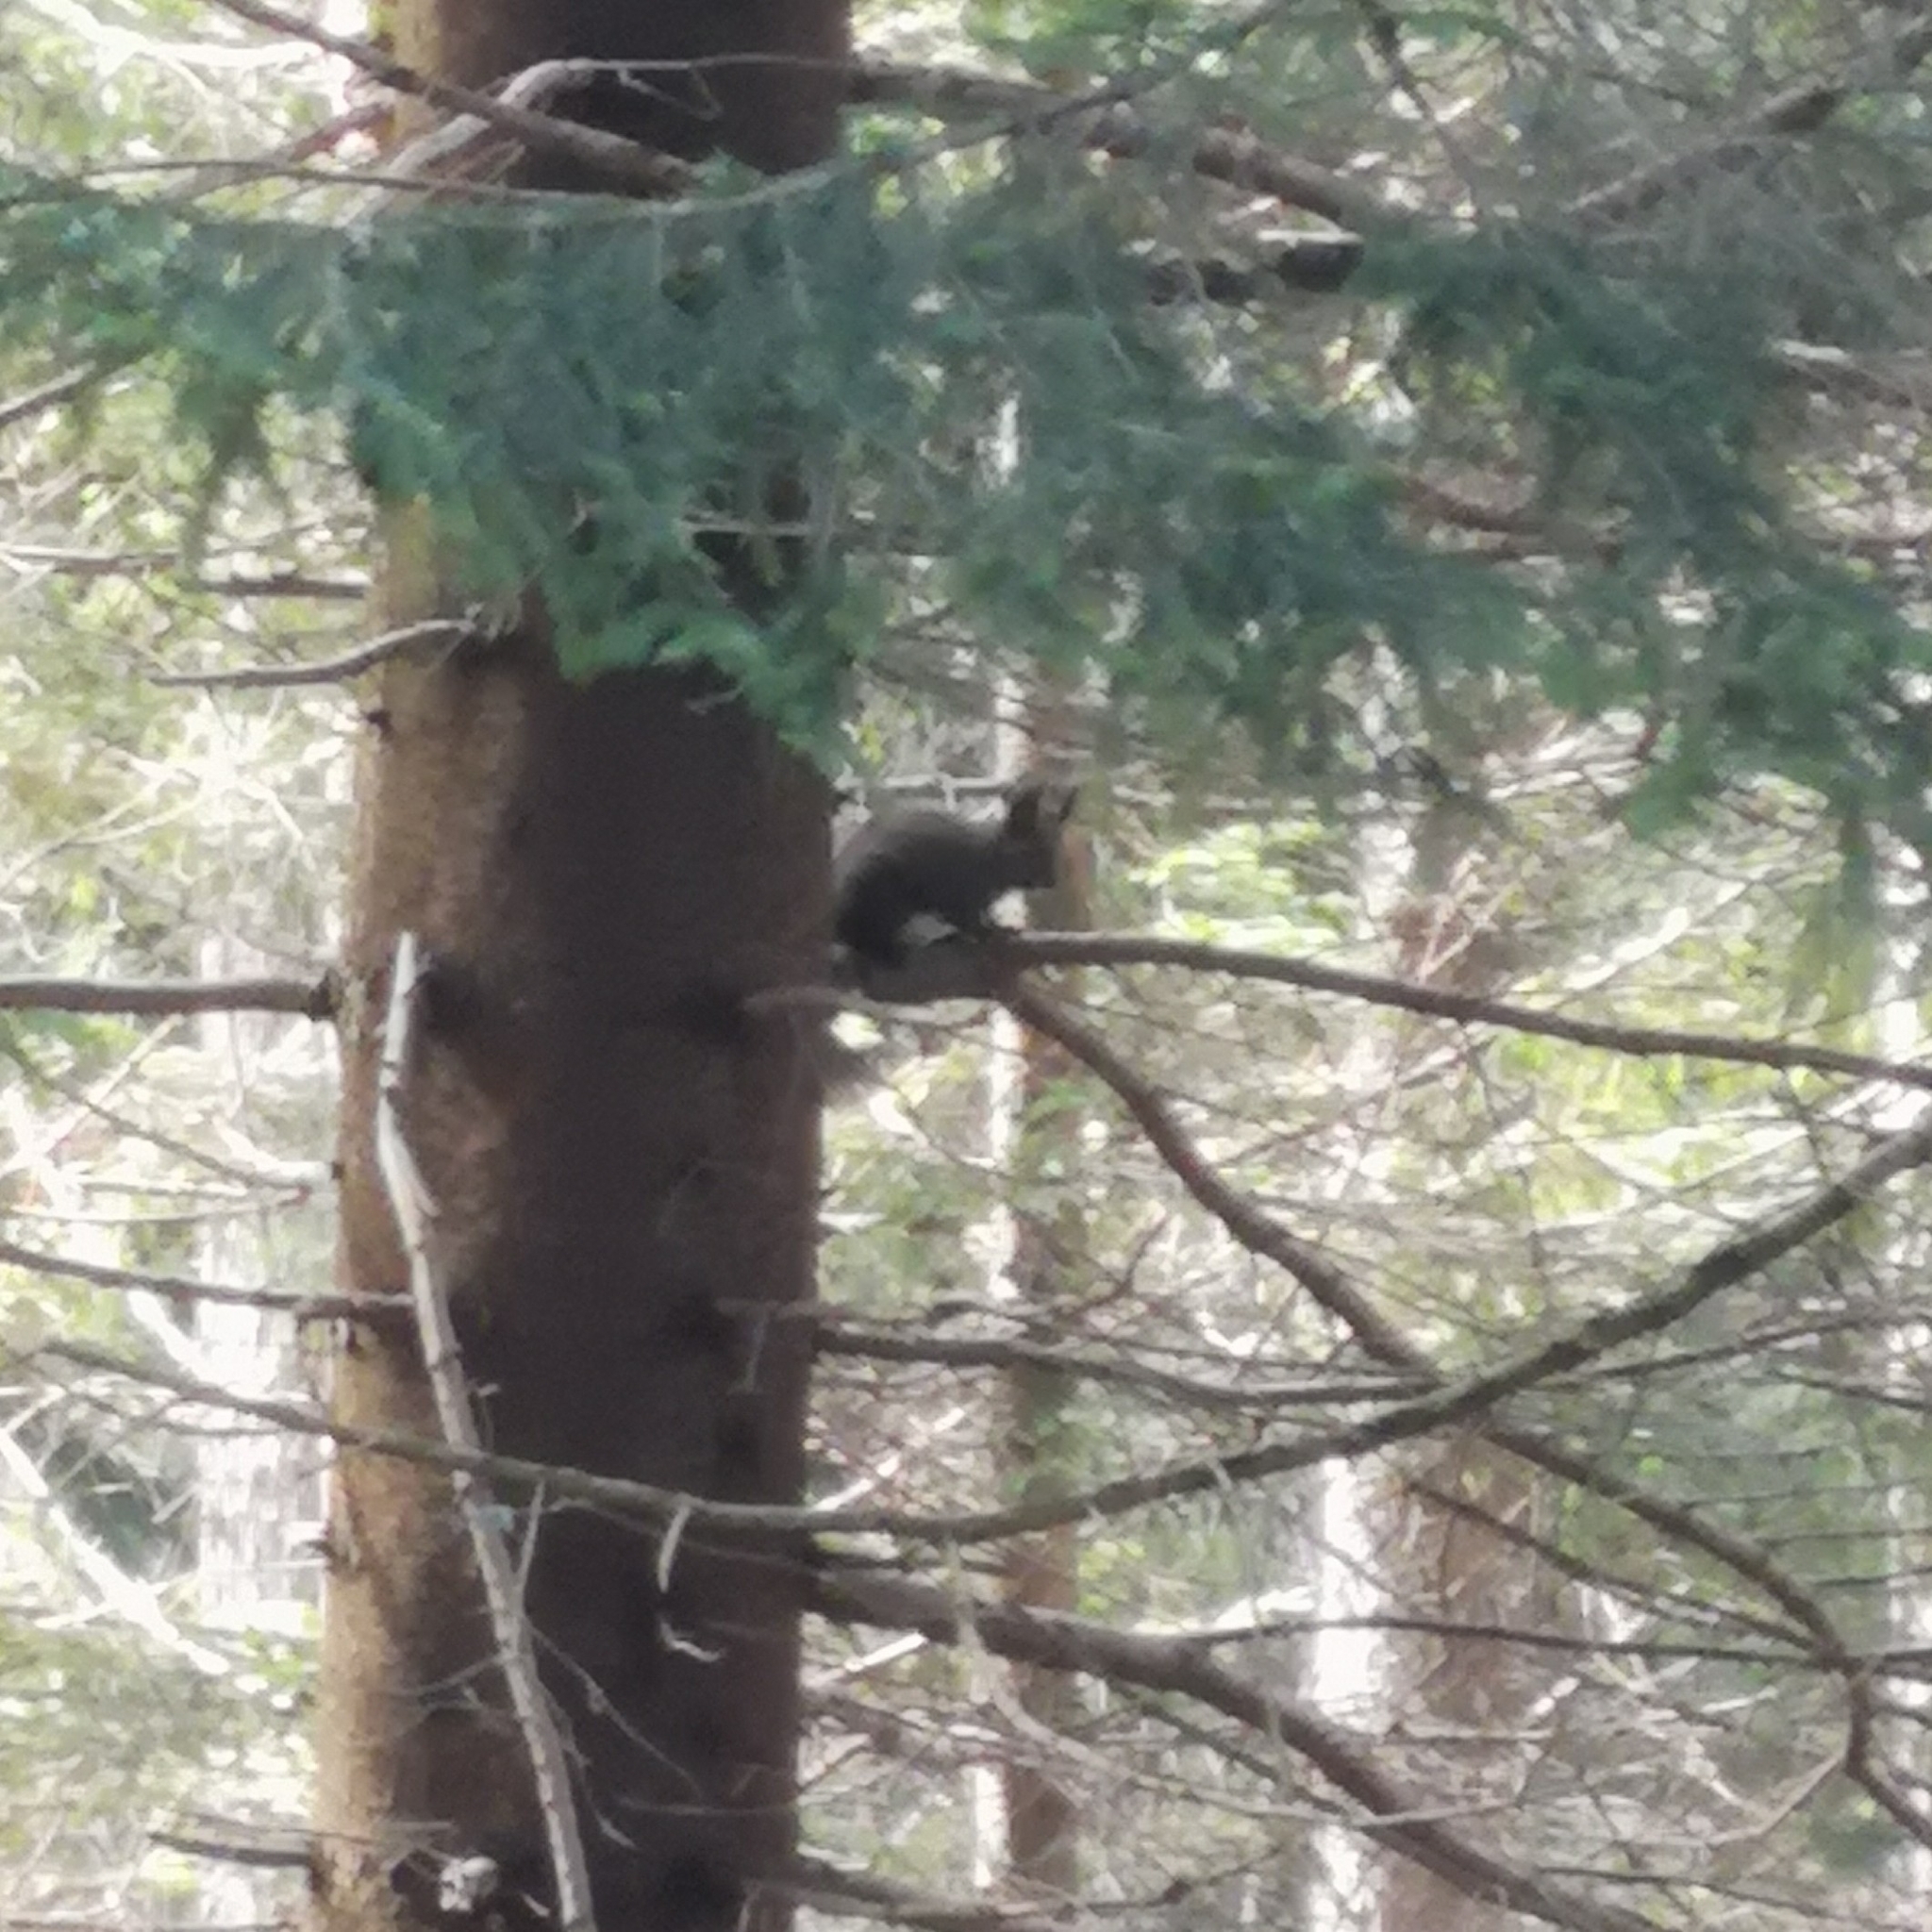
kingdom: Animalia
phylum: Chordata
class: Mammalia
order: Rodentia
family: Sciuridae
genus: Sciurus
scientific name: Sciurus vulgaris
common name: Eurasian red squirrel
